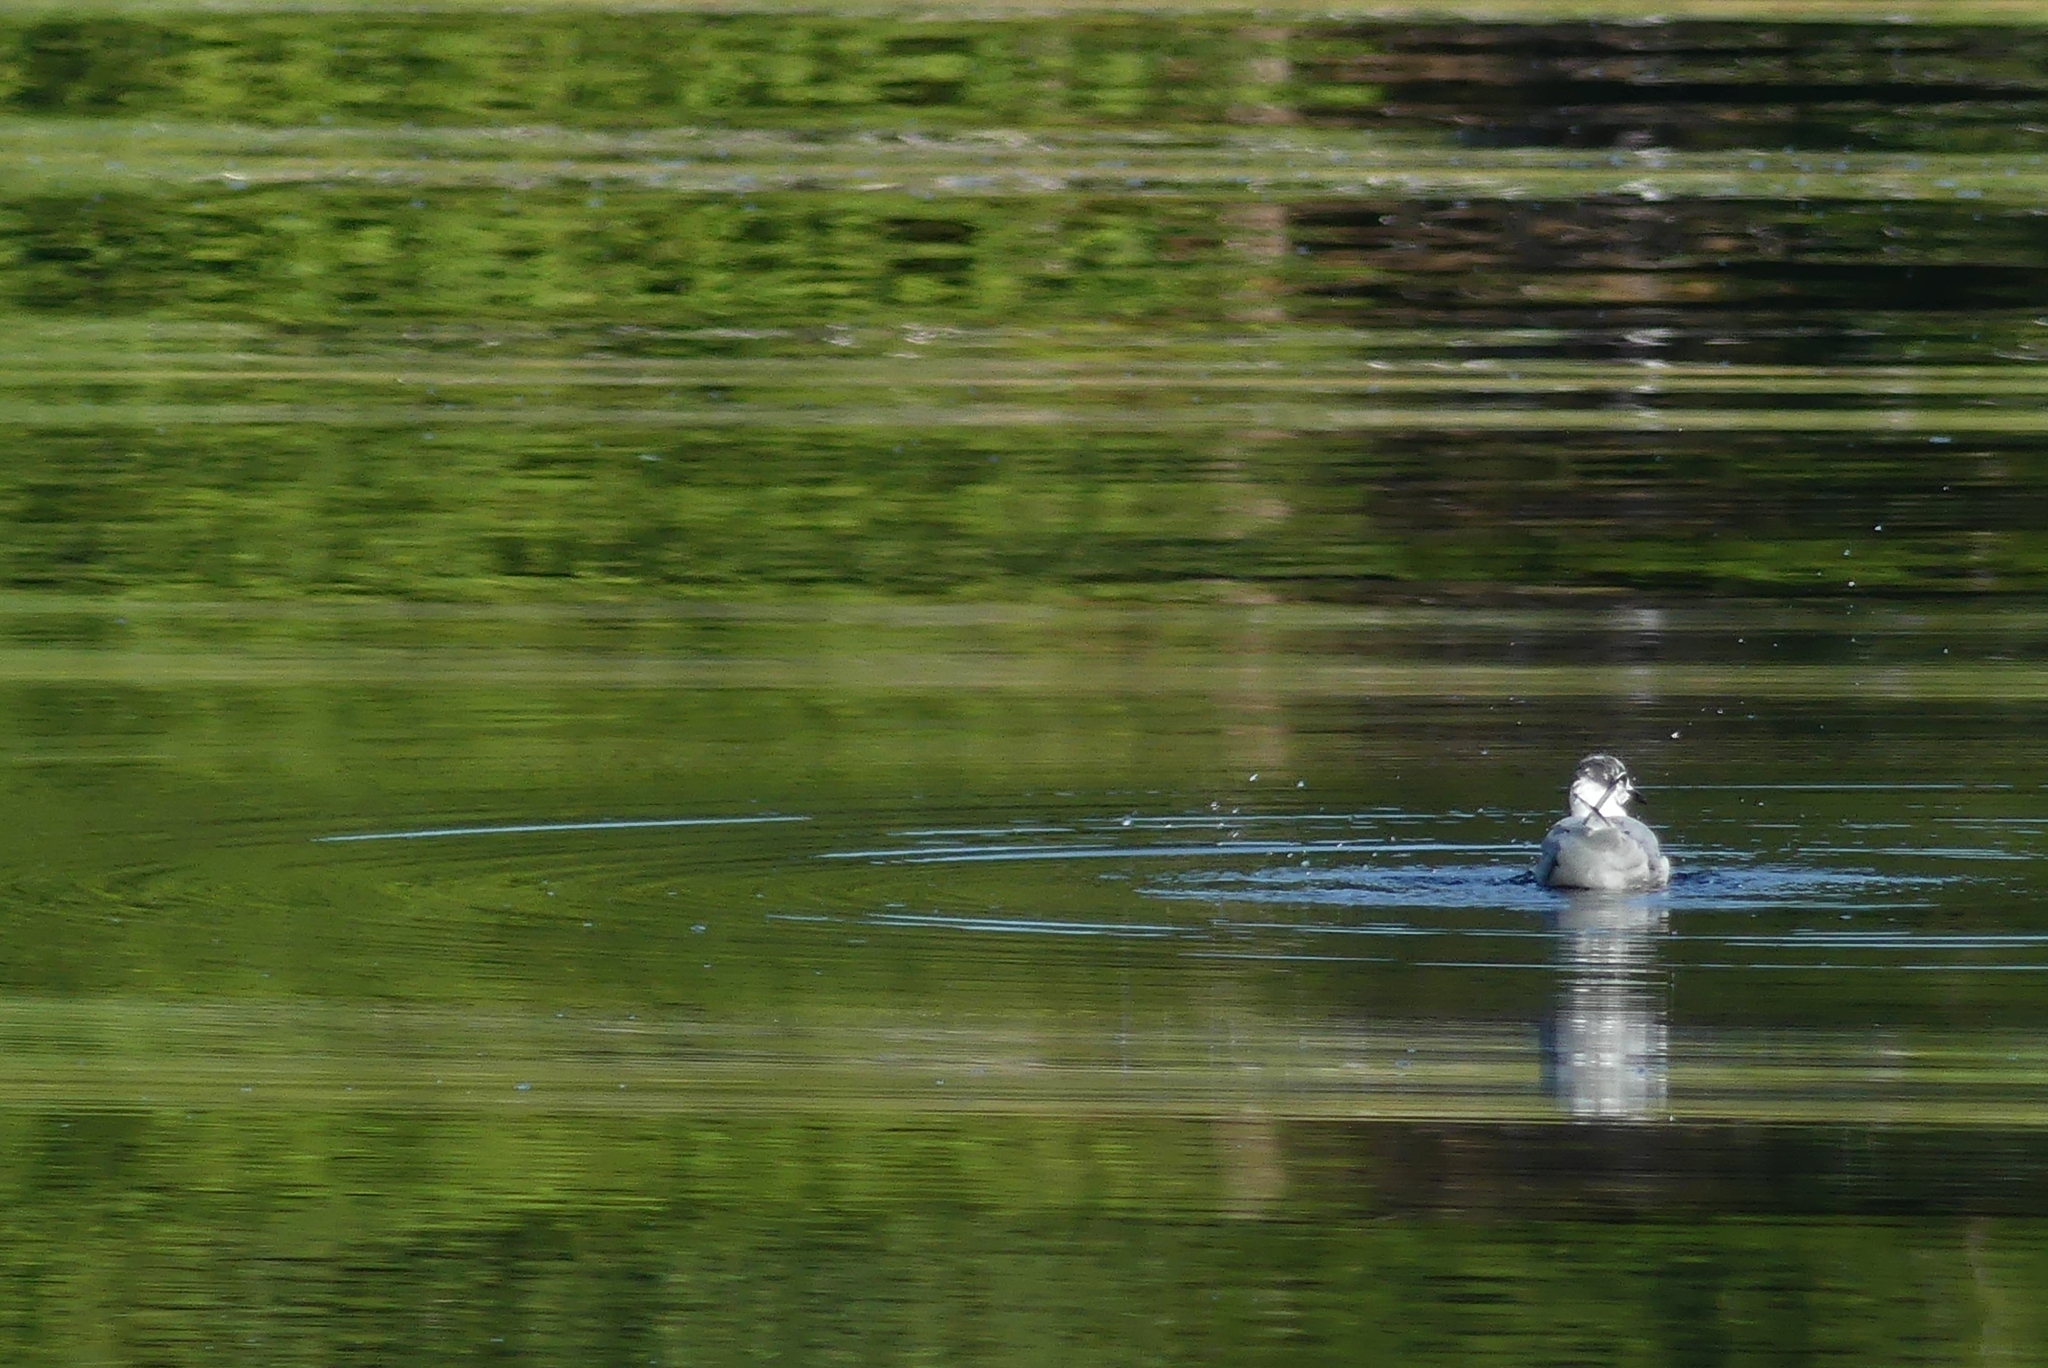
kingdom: Animalia
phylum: Chordata
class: Aves
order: Charadriiformes
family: Laridae
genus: Chroicocephalus
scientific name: Chroicocephalus philadelphia
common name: Bonaparte's gull
